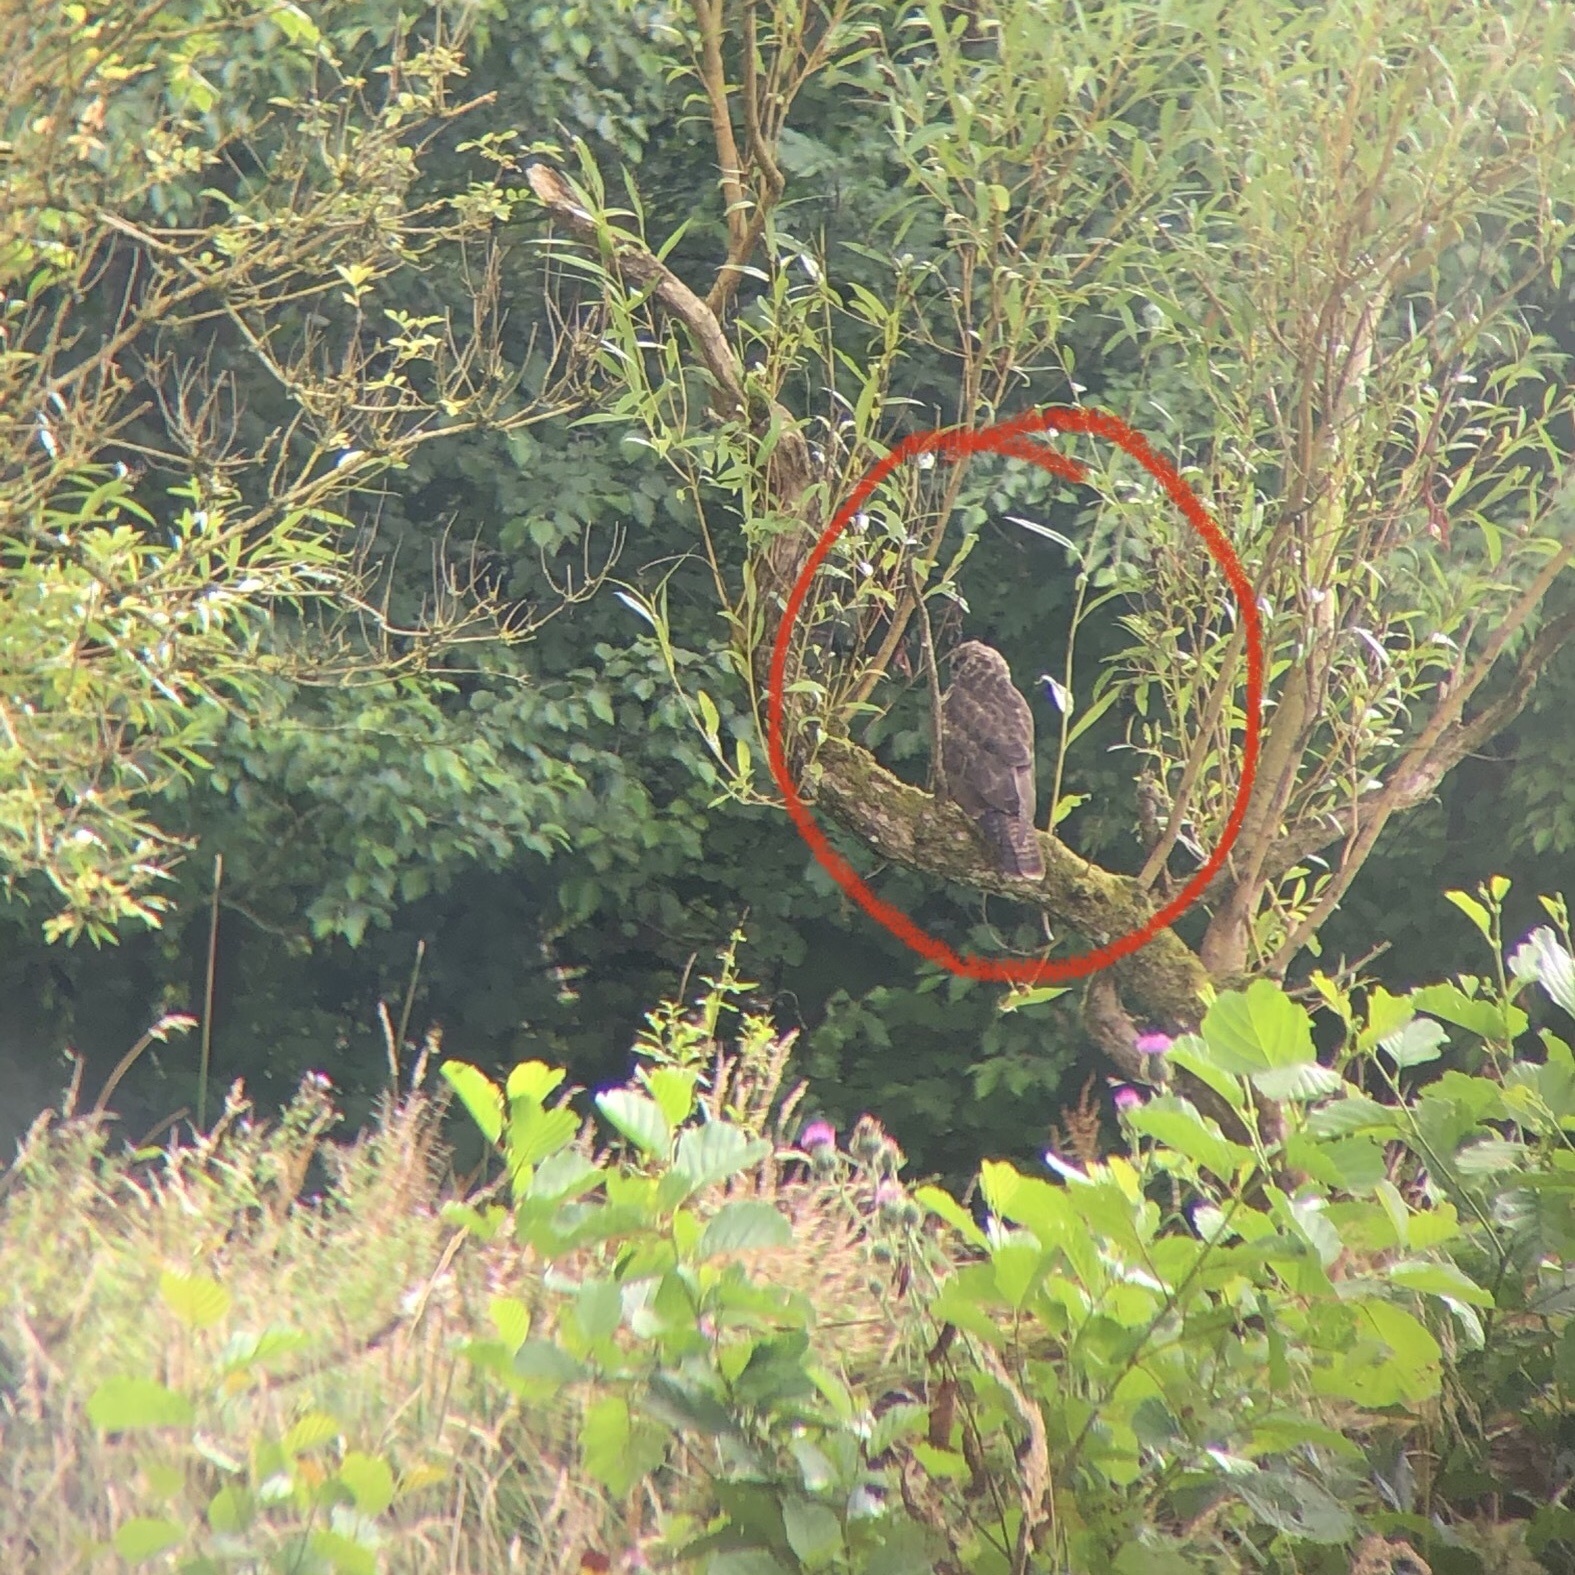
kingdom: Animalia
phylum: Chordata
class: Aves
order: Accipitriformes
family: Accipitridae
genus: Buteo
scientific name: Buteo buteo
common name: Common buzzard
